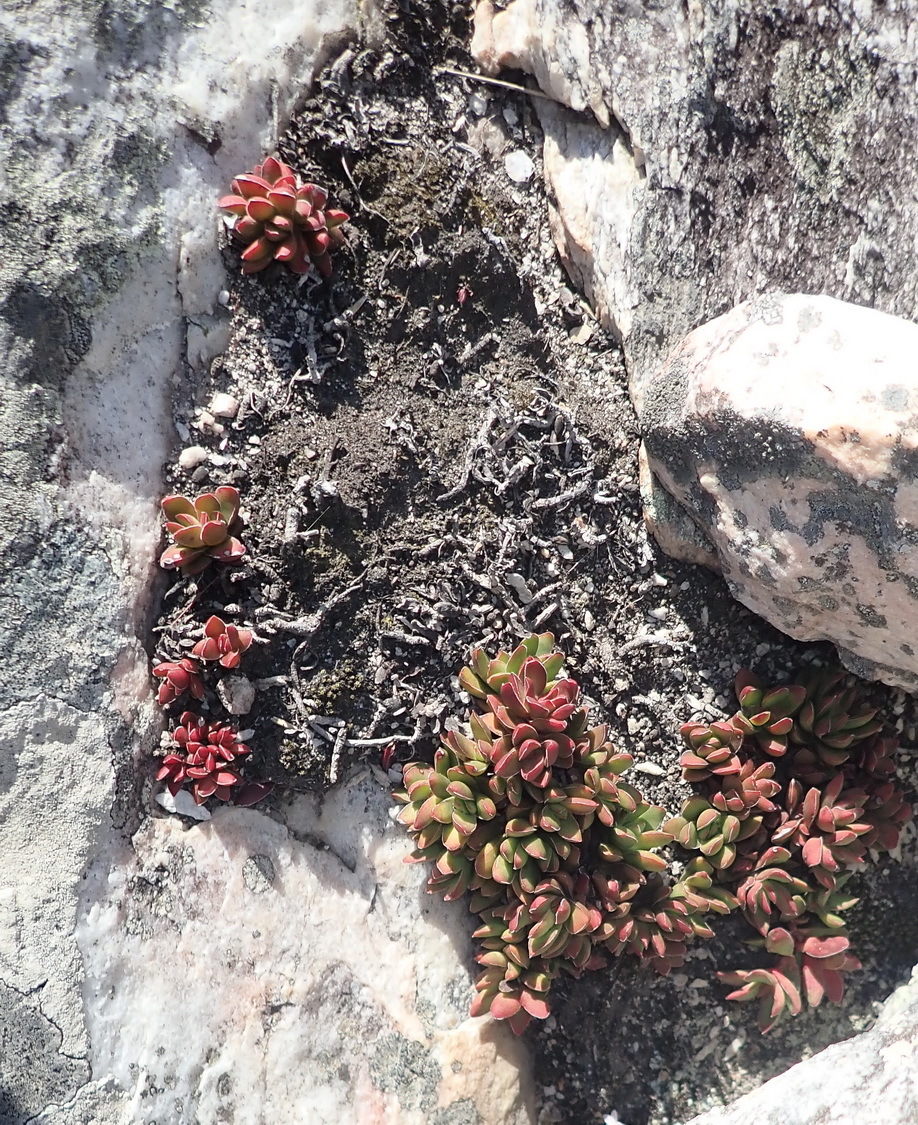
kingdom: Plantae
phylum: Tracheophyta
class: Magnoliopsida
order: Saxifragales
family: Crassulaceae
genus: Crassula
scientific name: Crassula rubricaulis
